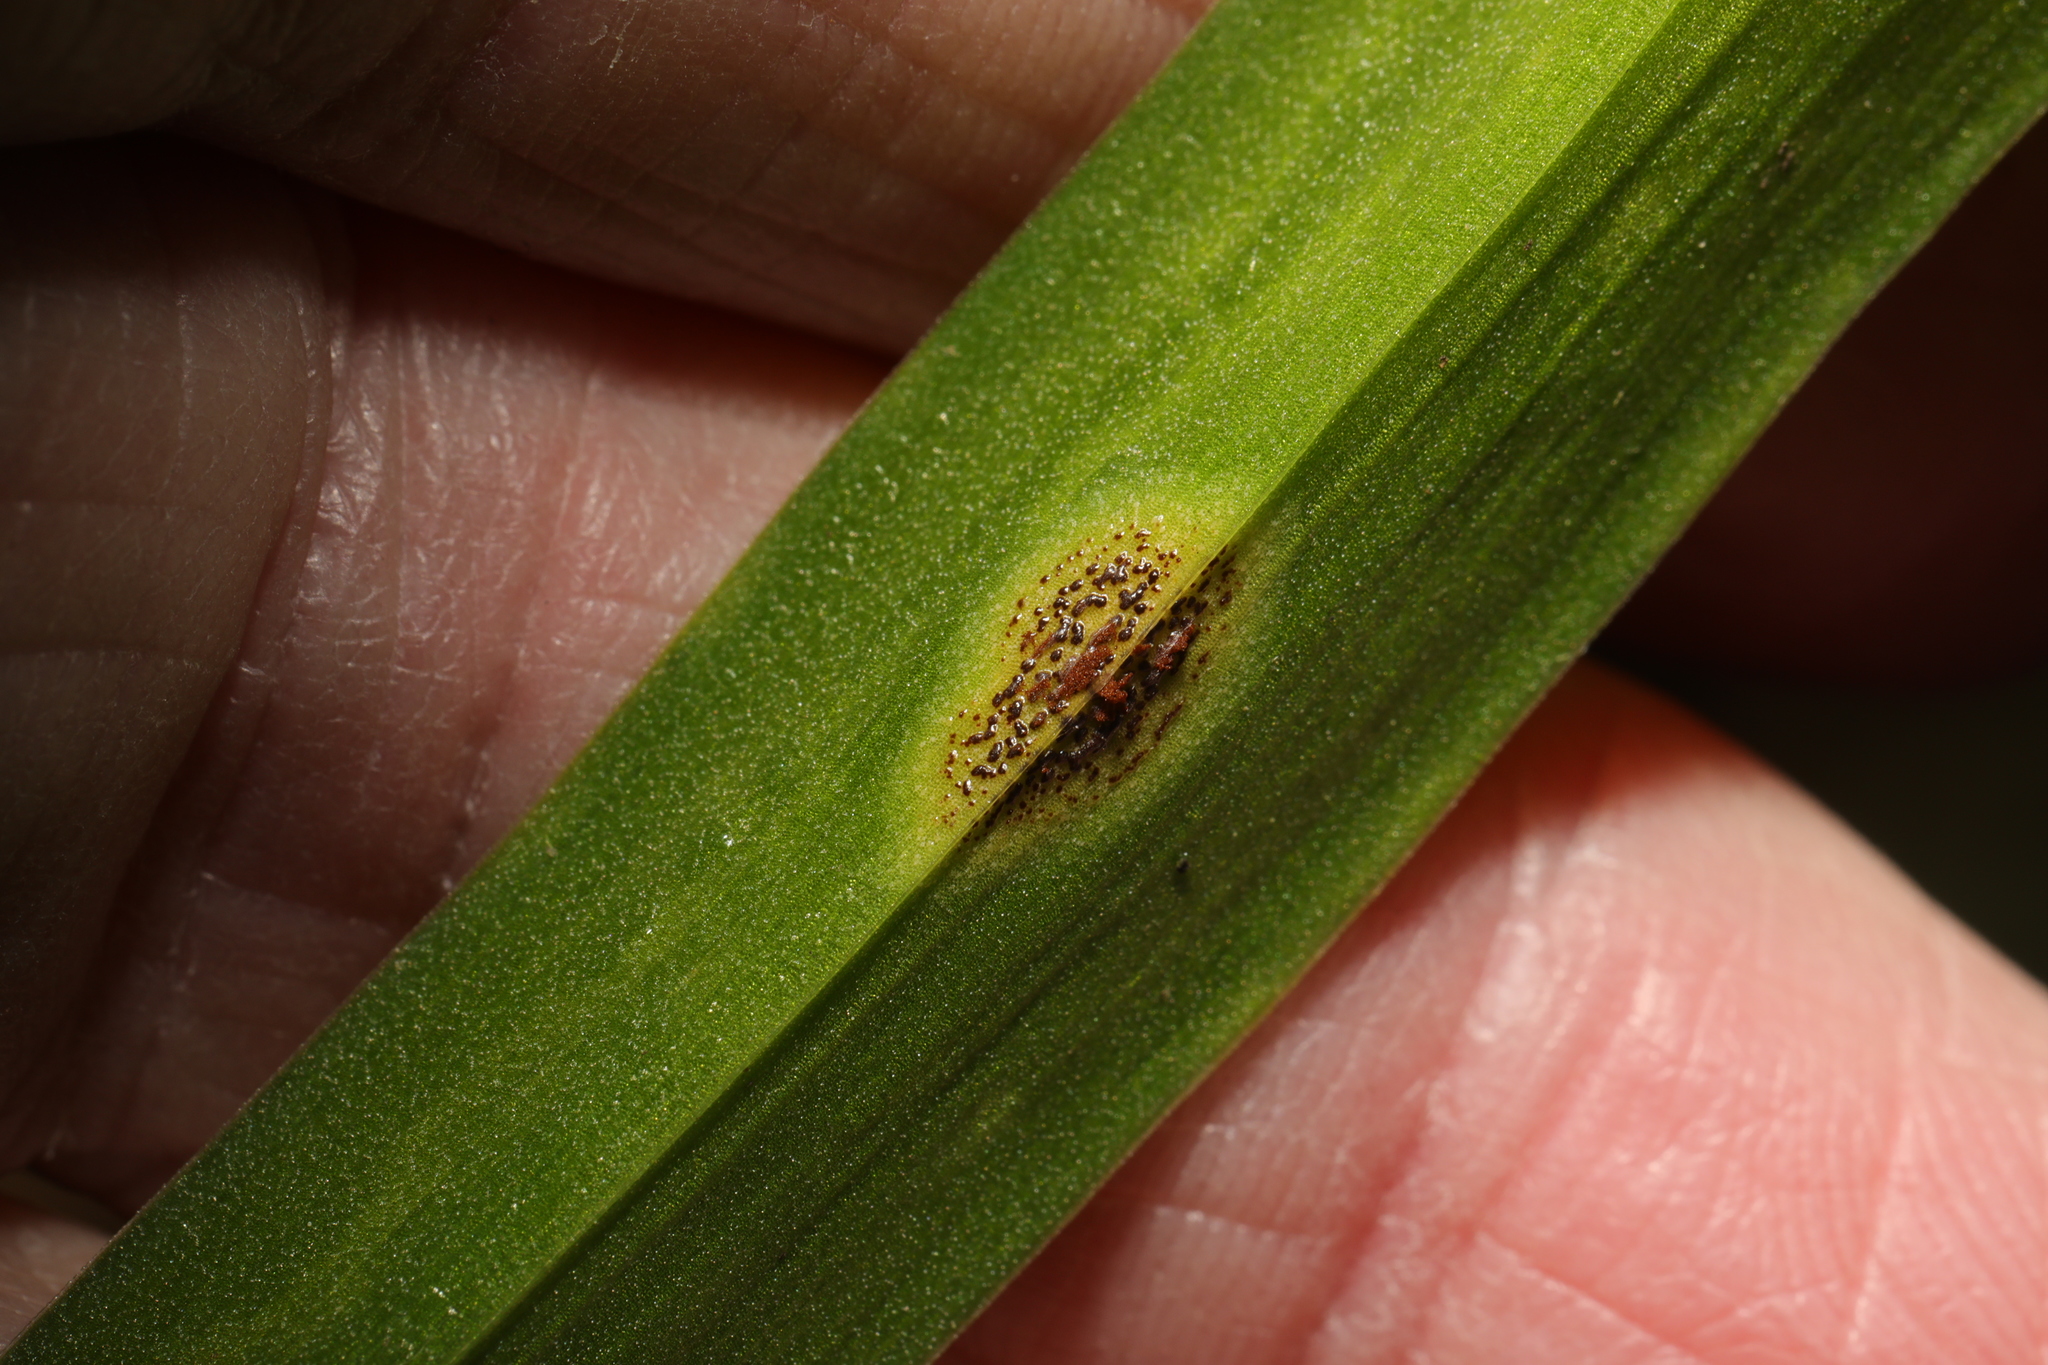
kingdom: Fungi
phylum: Basidiomycota
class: Pucciniomycetes
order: Pucciniales
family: Pucciniaceae
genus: Uromyces
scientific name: Uromyces hyacinthi
